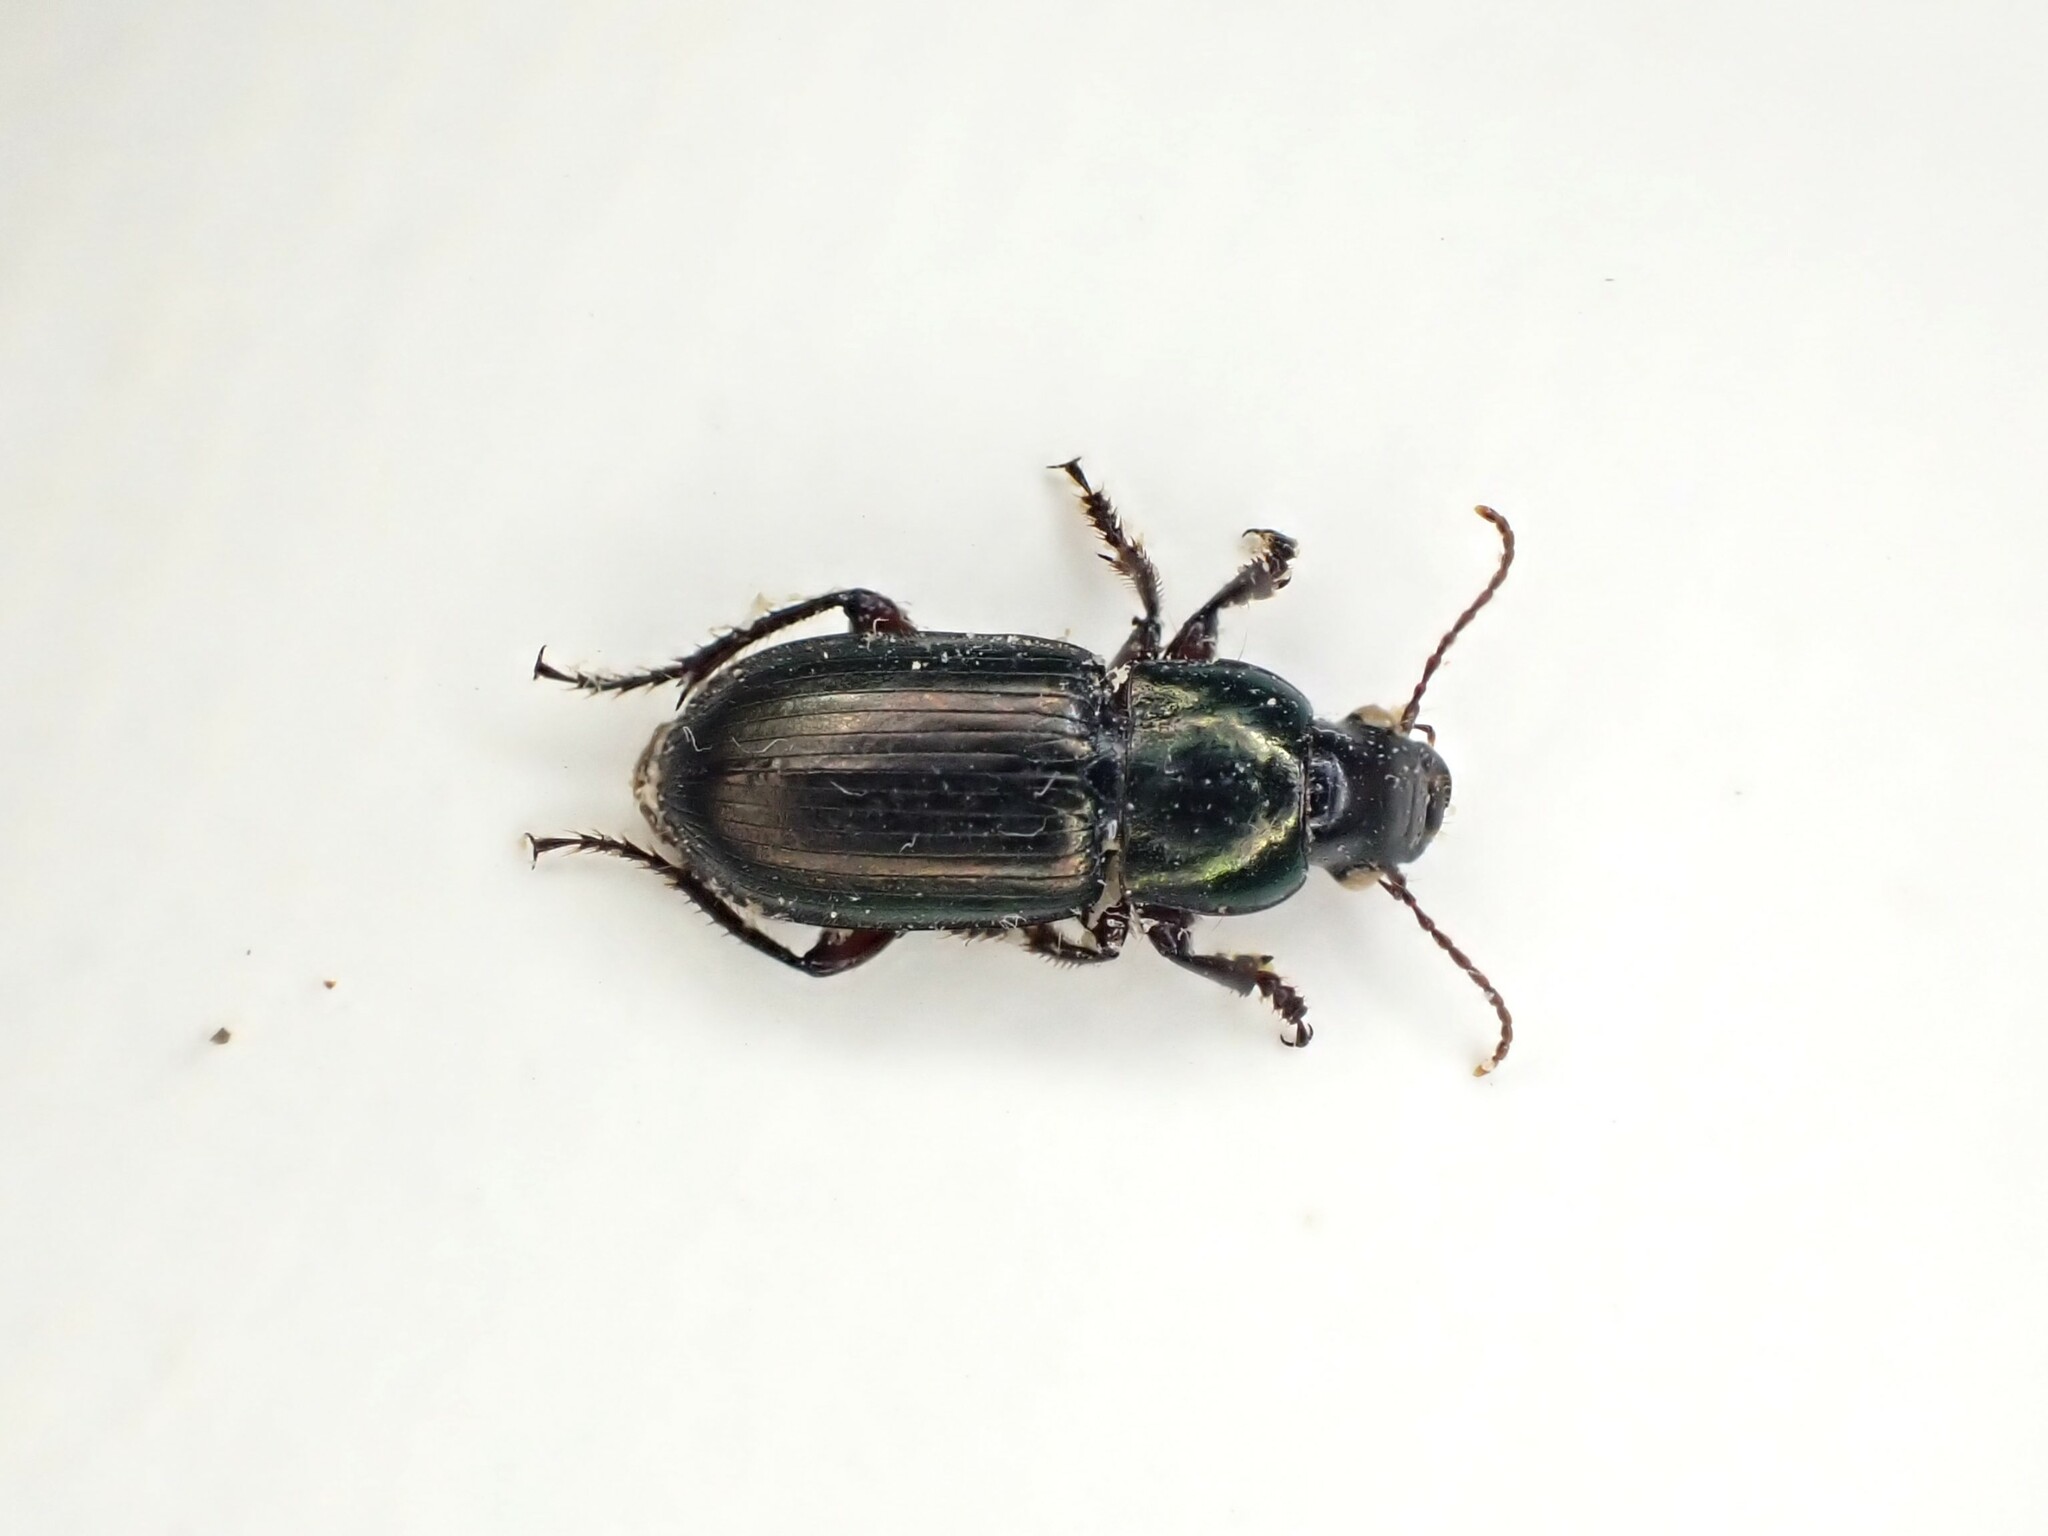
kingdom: Animalia
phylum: Arthropoda
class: Insecta
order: Coleoptera
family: Carabidae
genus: Harpalus
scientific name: Harpalus affinis
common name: Polychrome harp ground beetle
